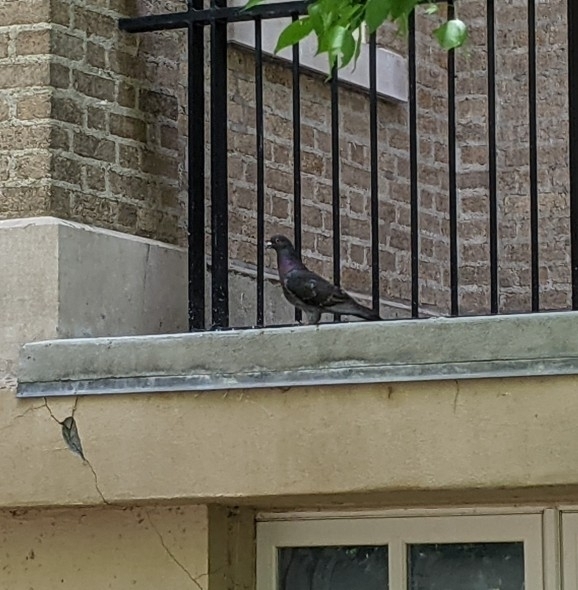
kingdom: Animalia
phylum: Chordata
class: Aves
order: Columbiformes
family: Columbidae
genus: Columba
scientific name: Columba livia
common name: Rock pigeon
